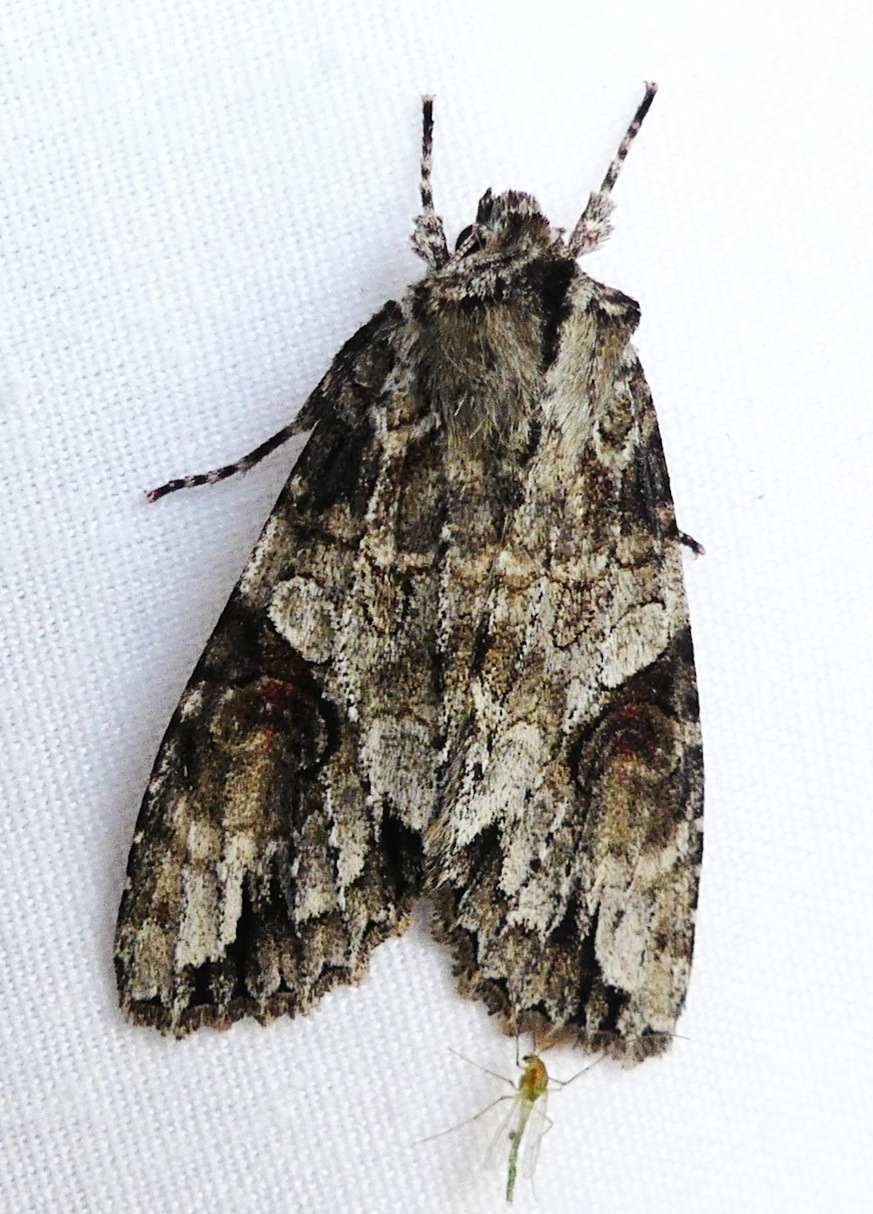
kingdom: Animalia
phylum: Arthropoda
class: Insecta
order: Lepidoptera
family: Noctuidae
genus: Achatia
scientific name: Achatia latex
